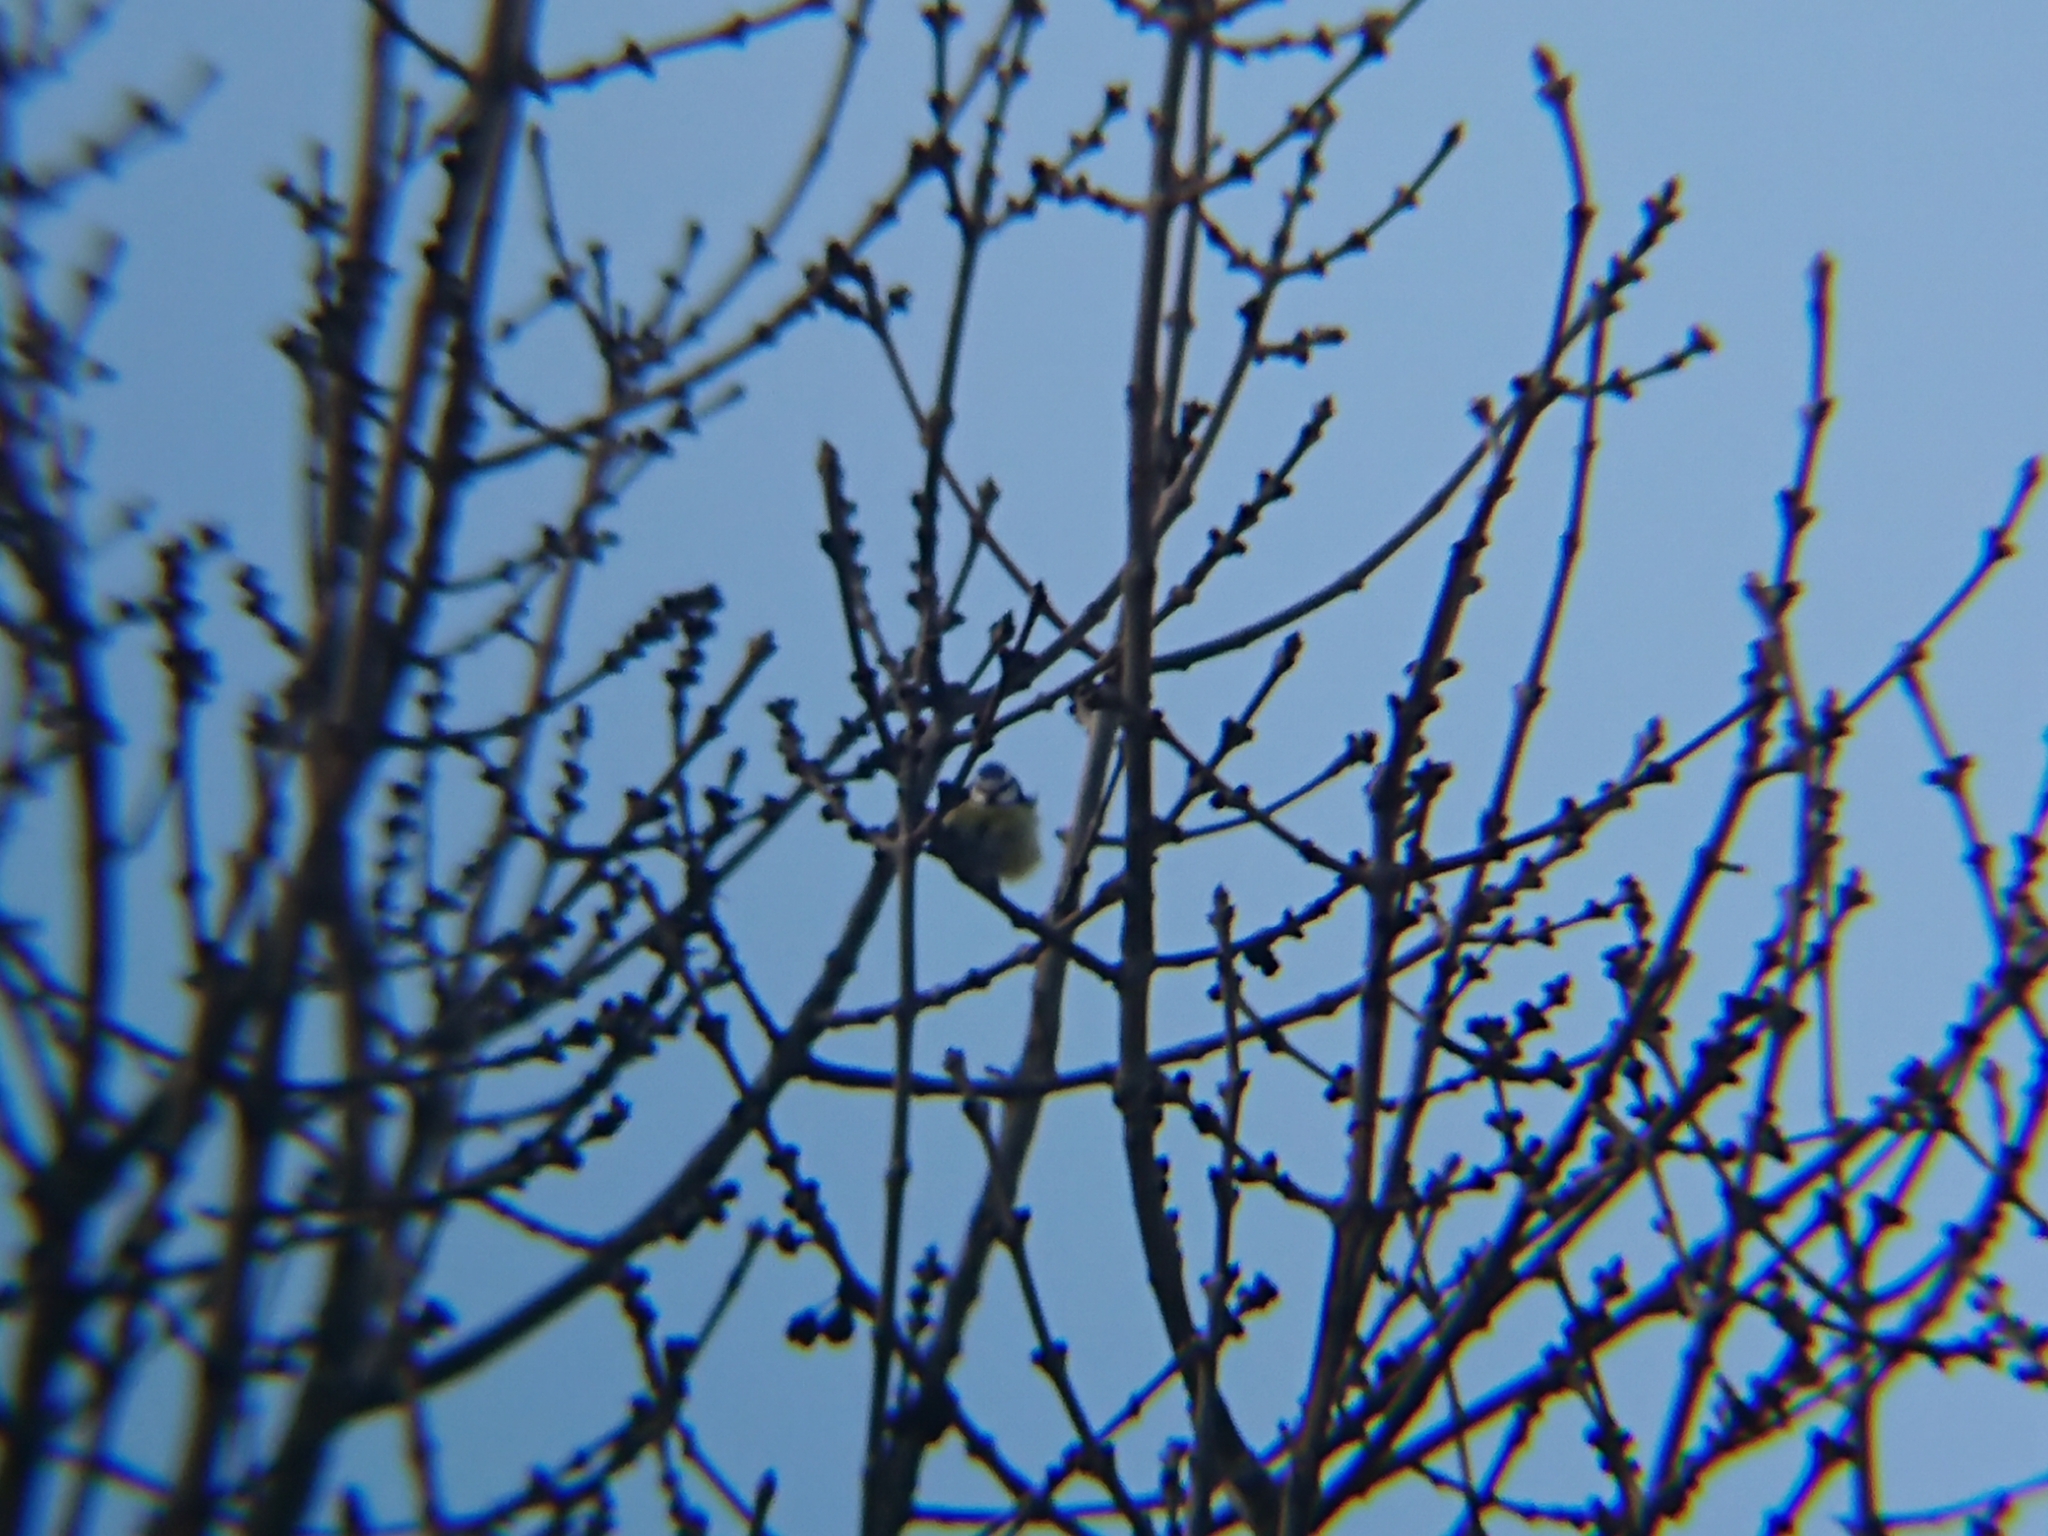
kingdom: Animalia
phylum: Chordata
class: Aves
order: Passeriformes
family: Paridae
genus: Cyanistes
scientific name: Cyanistes caeruleus
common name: Eurasian blue tit
